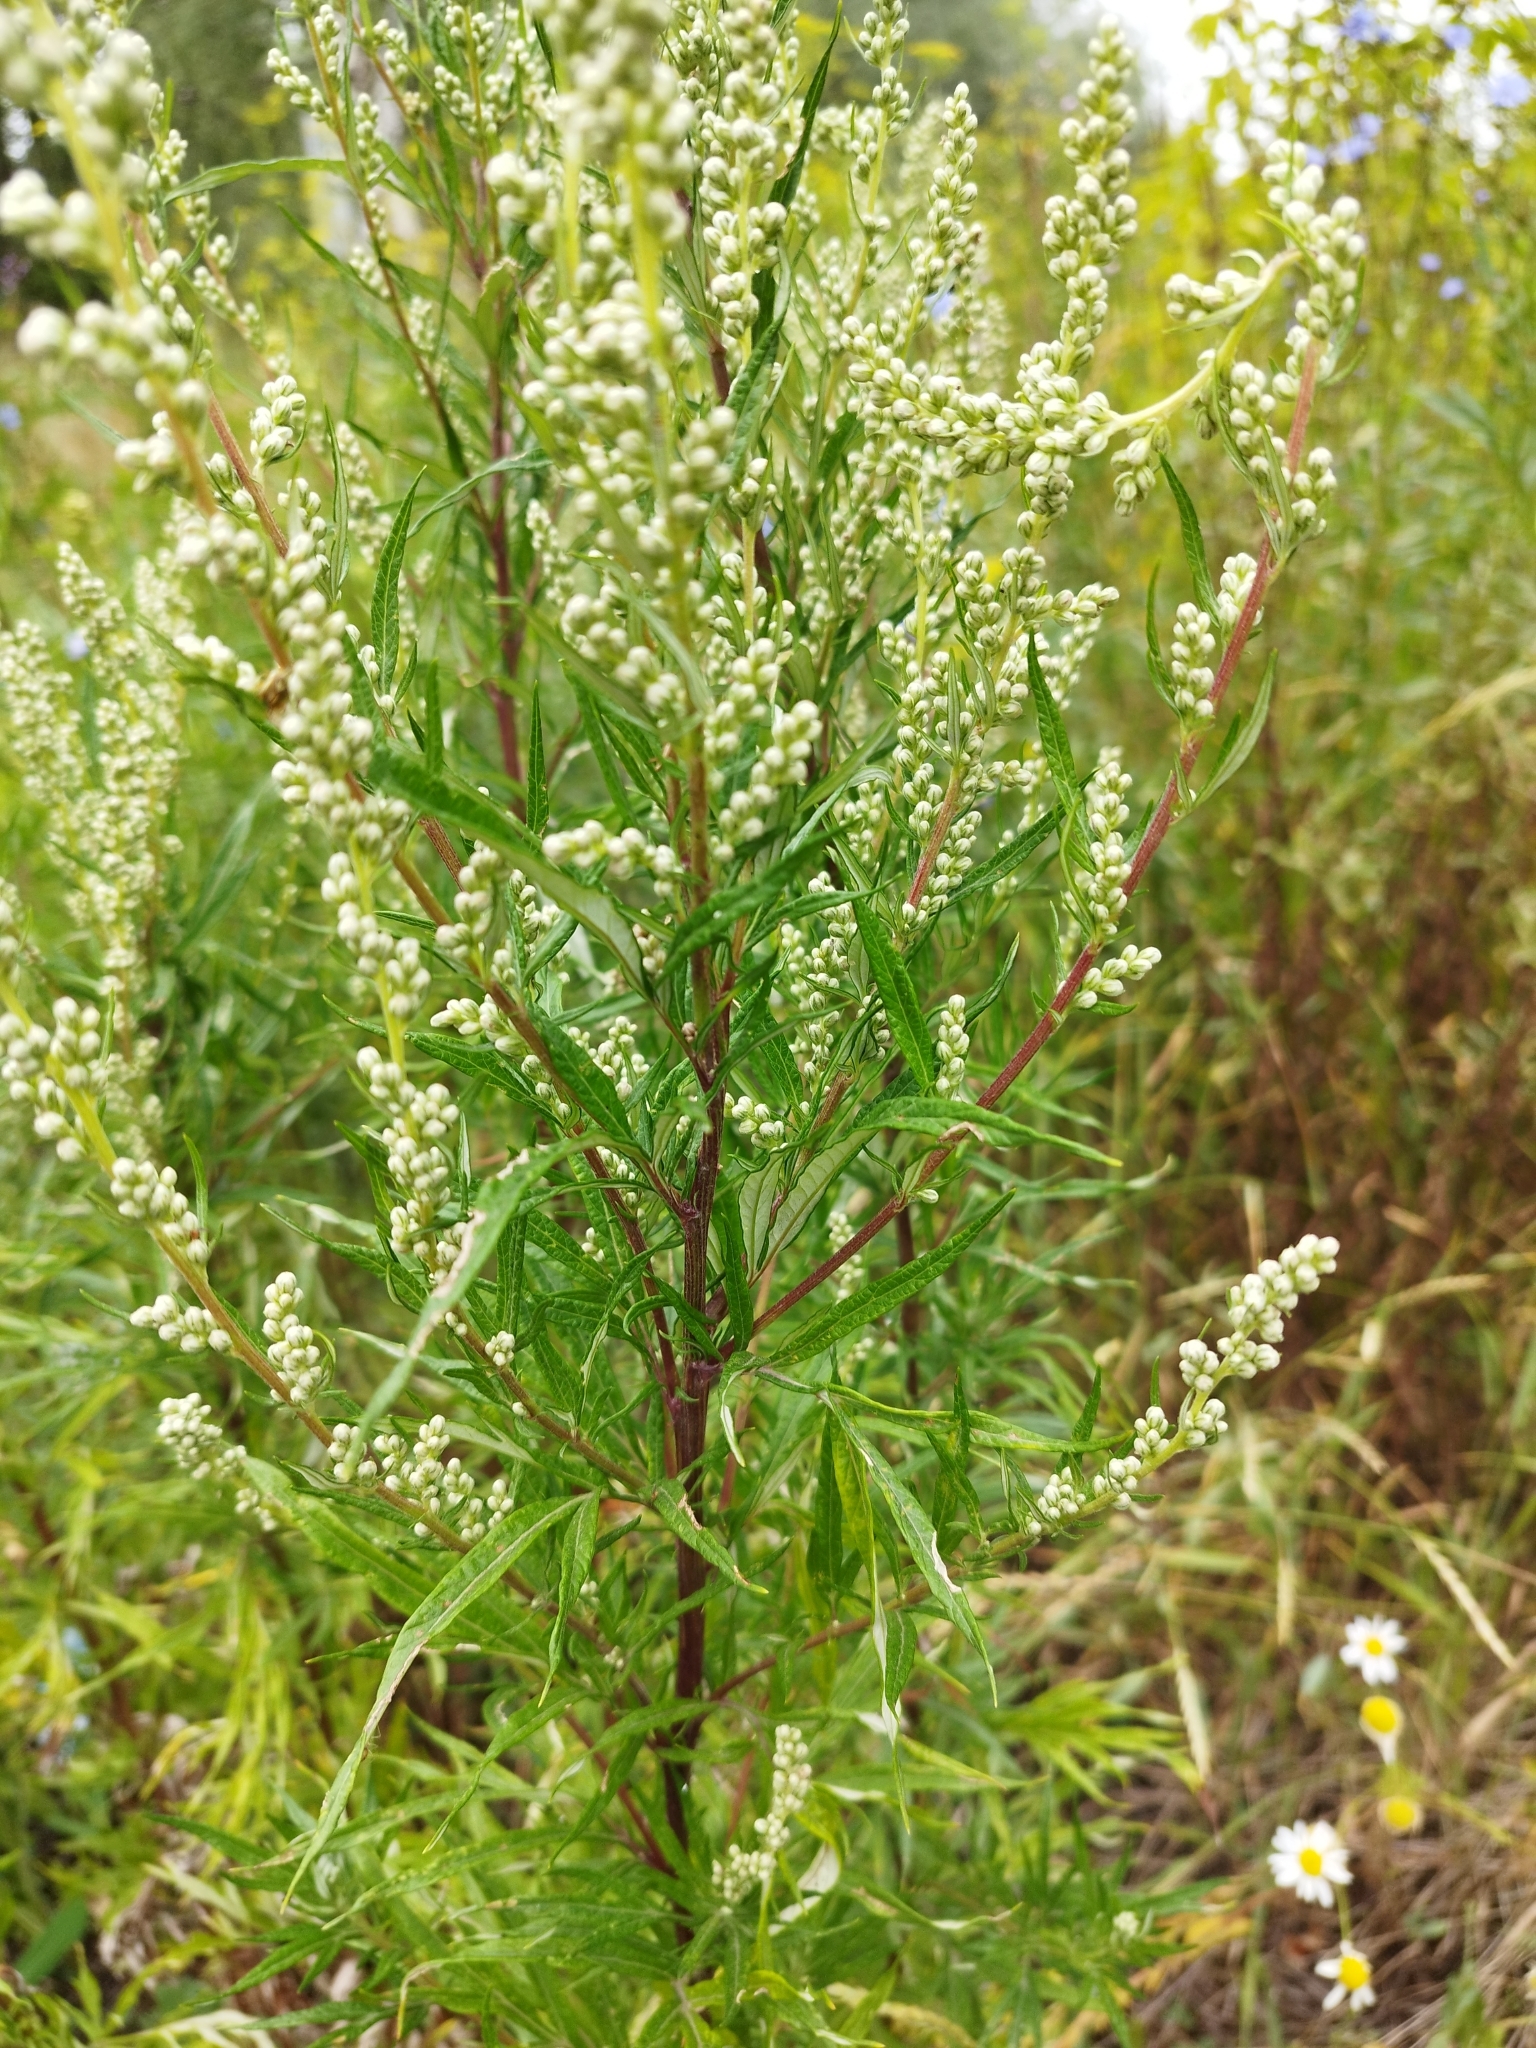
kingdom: Plantae
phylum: Tracheophyta
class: Magnoliopsida
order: Asterales
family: Asteraceae
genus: Artemisia
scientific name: Artemisia vulgaris
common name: Mugwort
